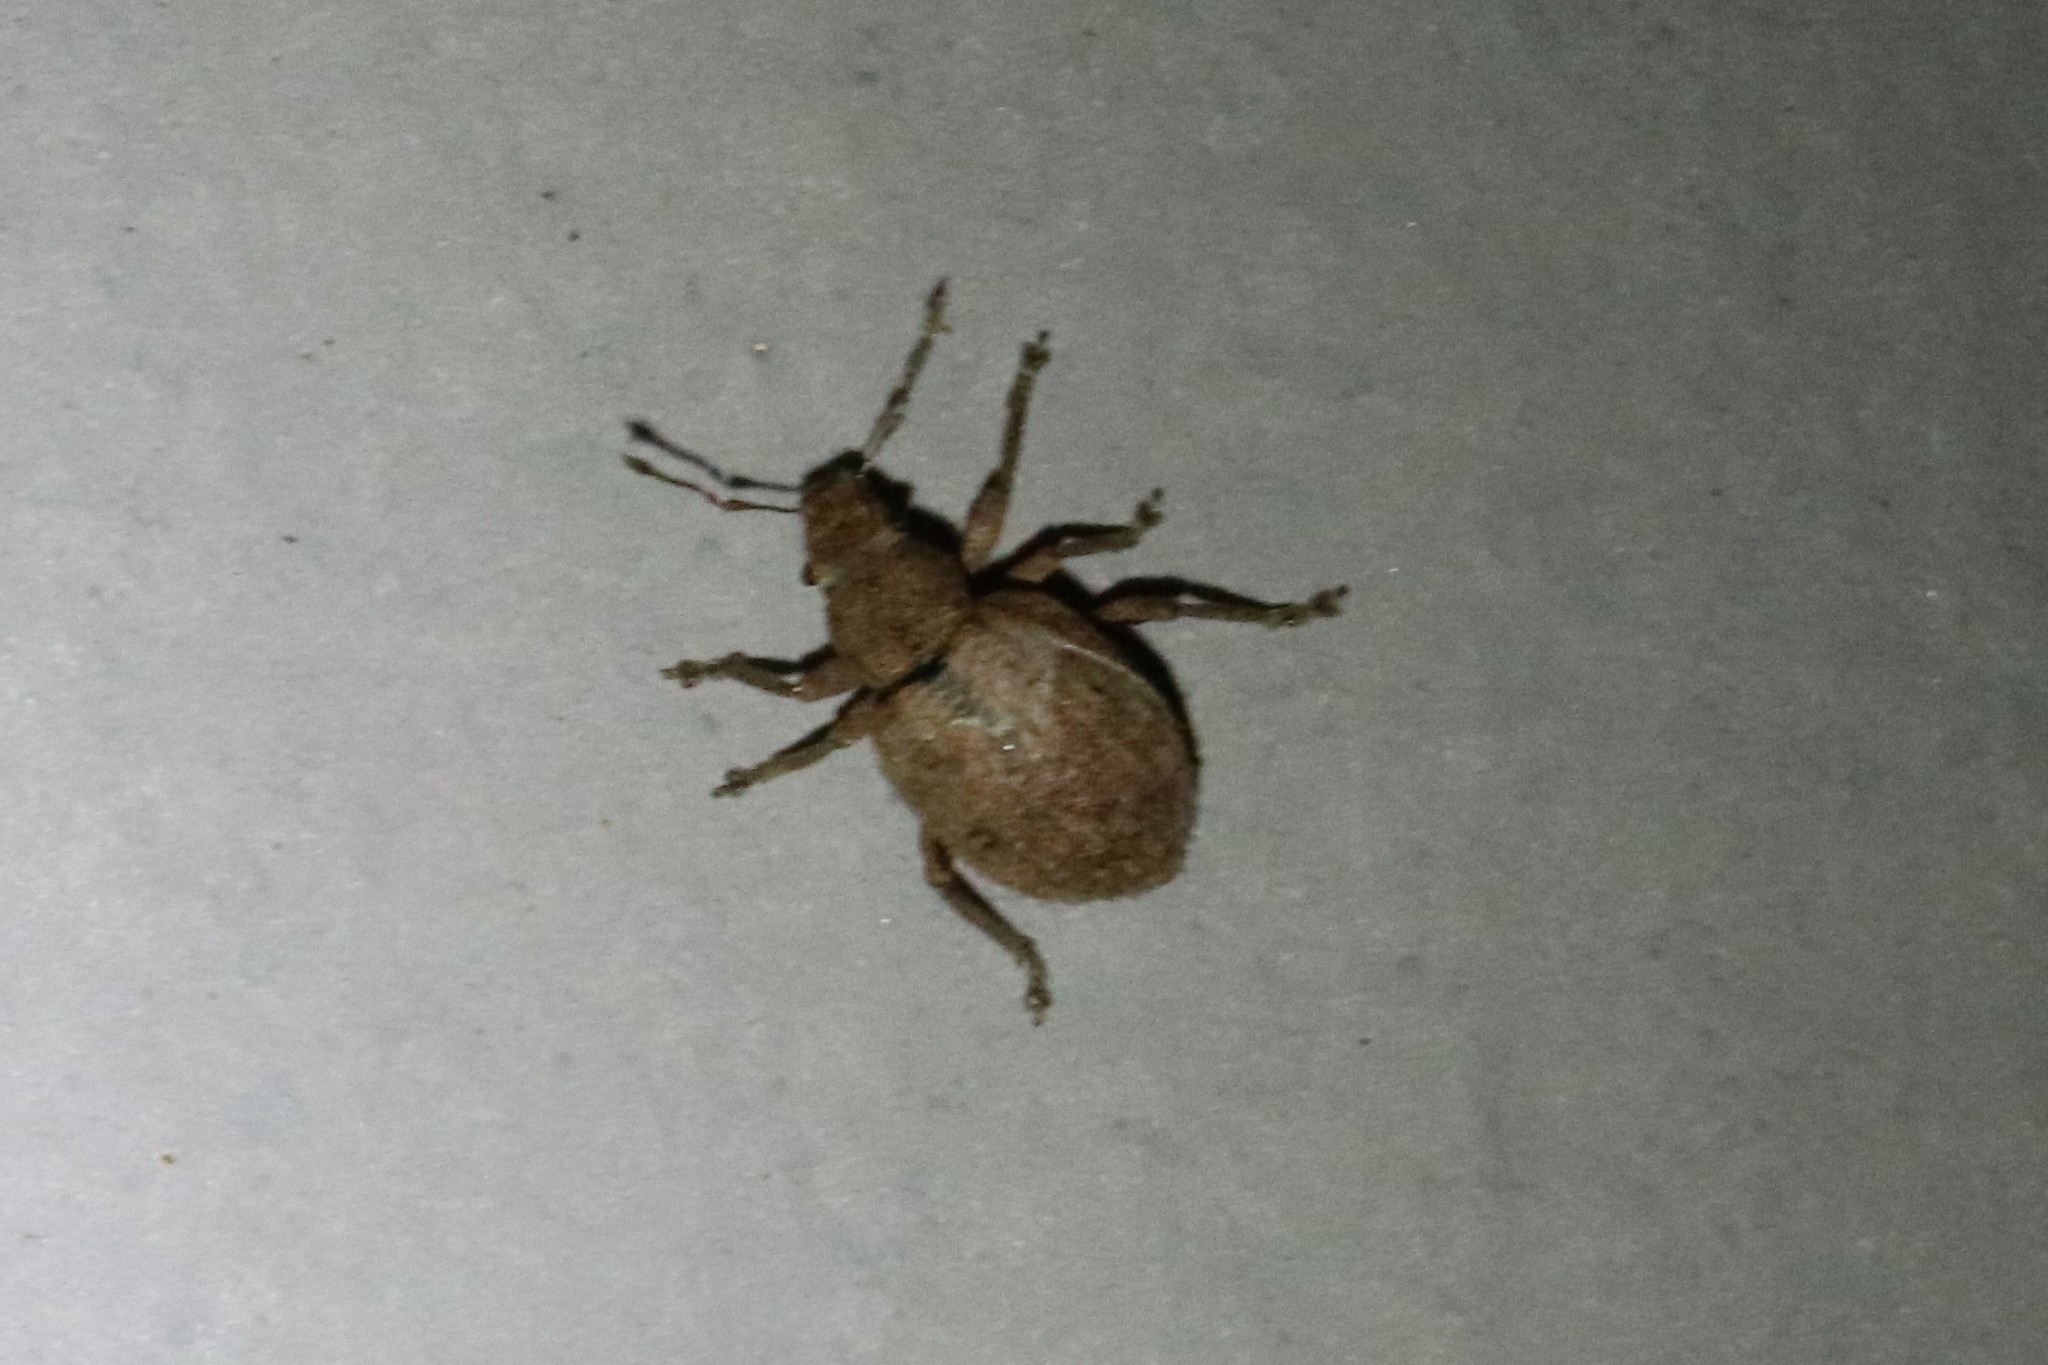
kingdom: Animalia
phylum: Arthropoda
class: Insecta
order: Coleoptera
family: Curculionidae
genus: Strophosoma
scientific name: Strophosoma melanogrammum
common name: Weevil
